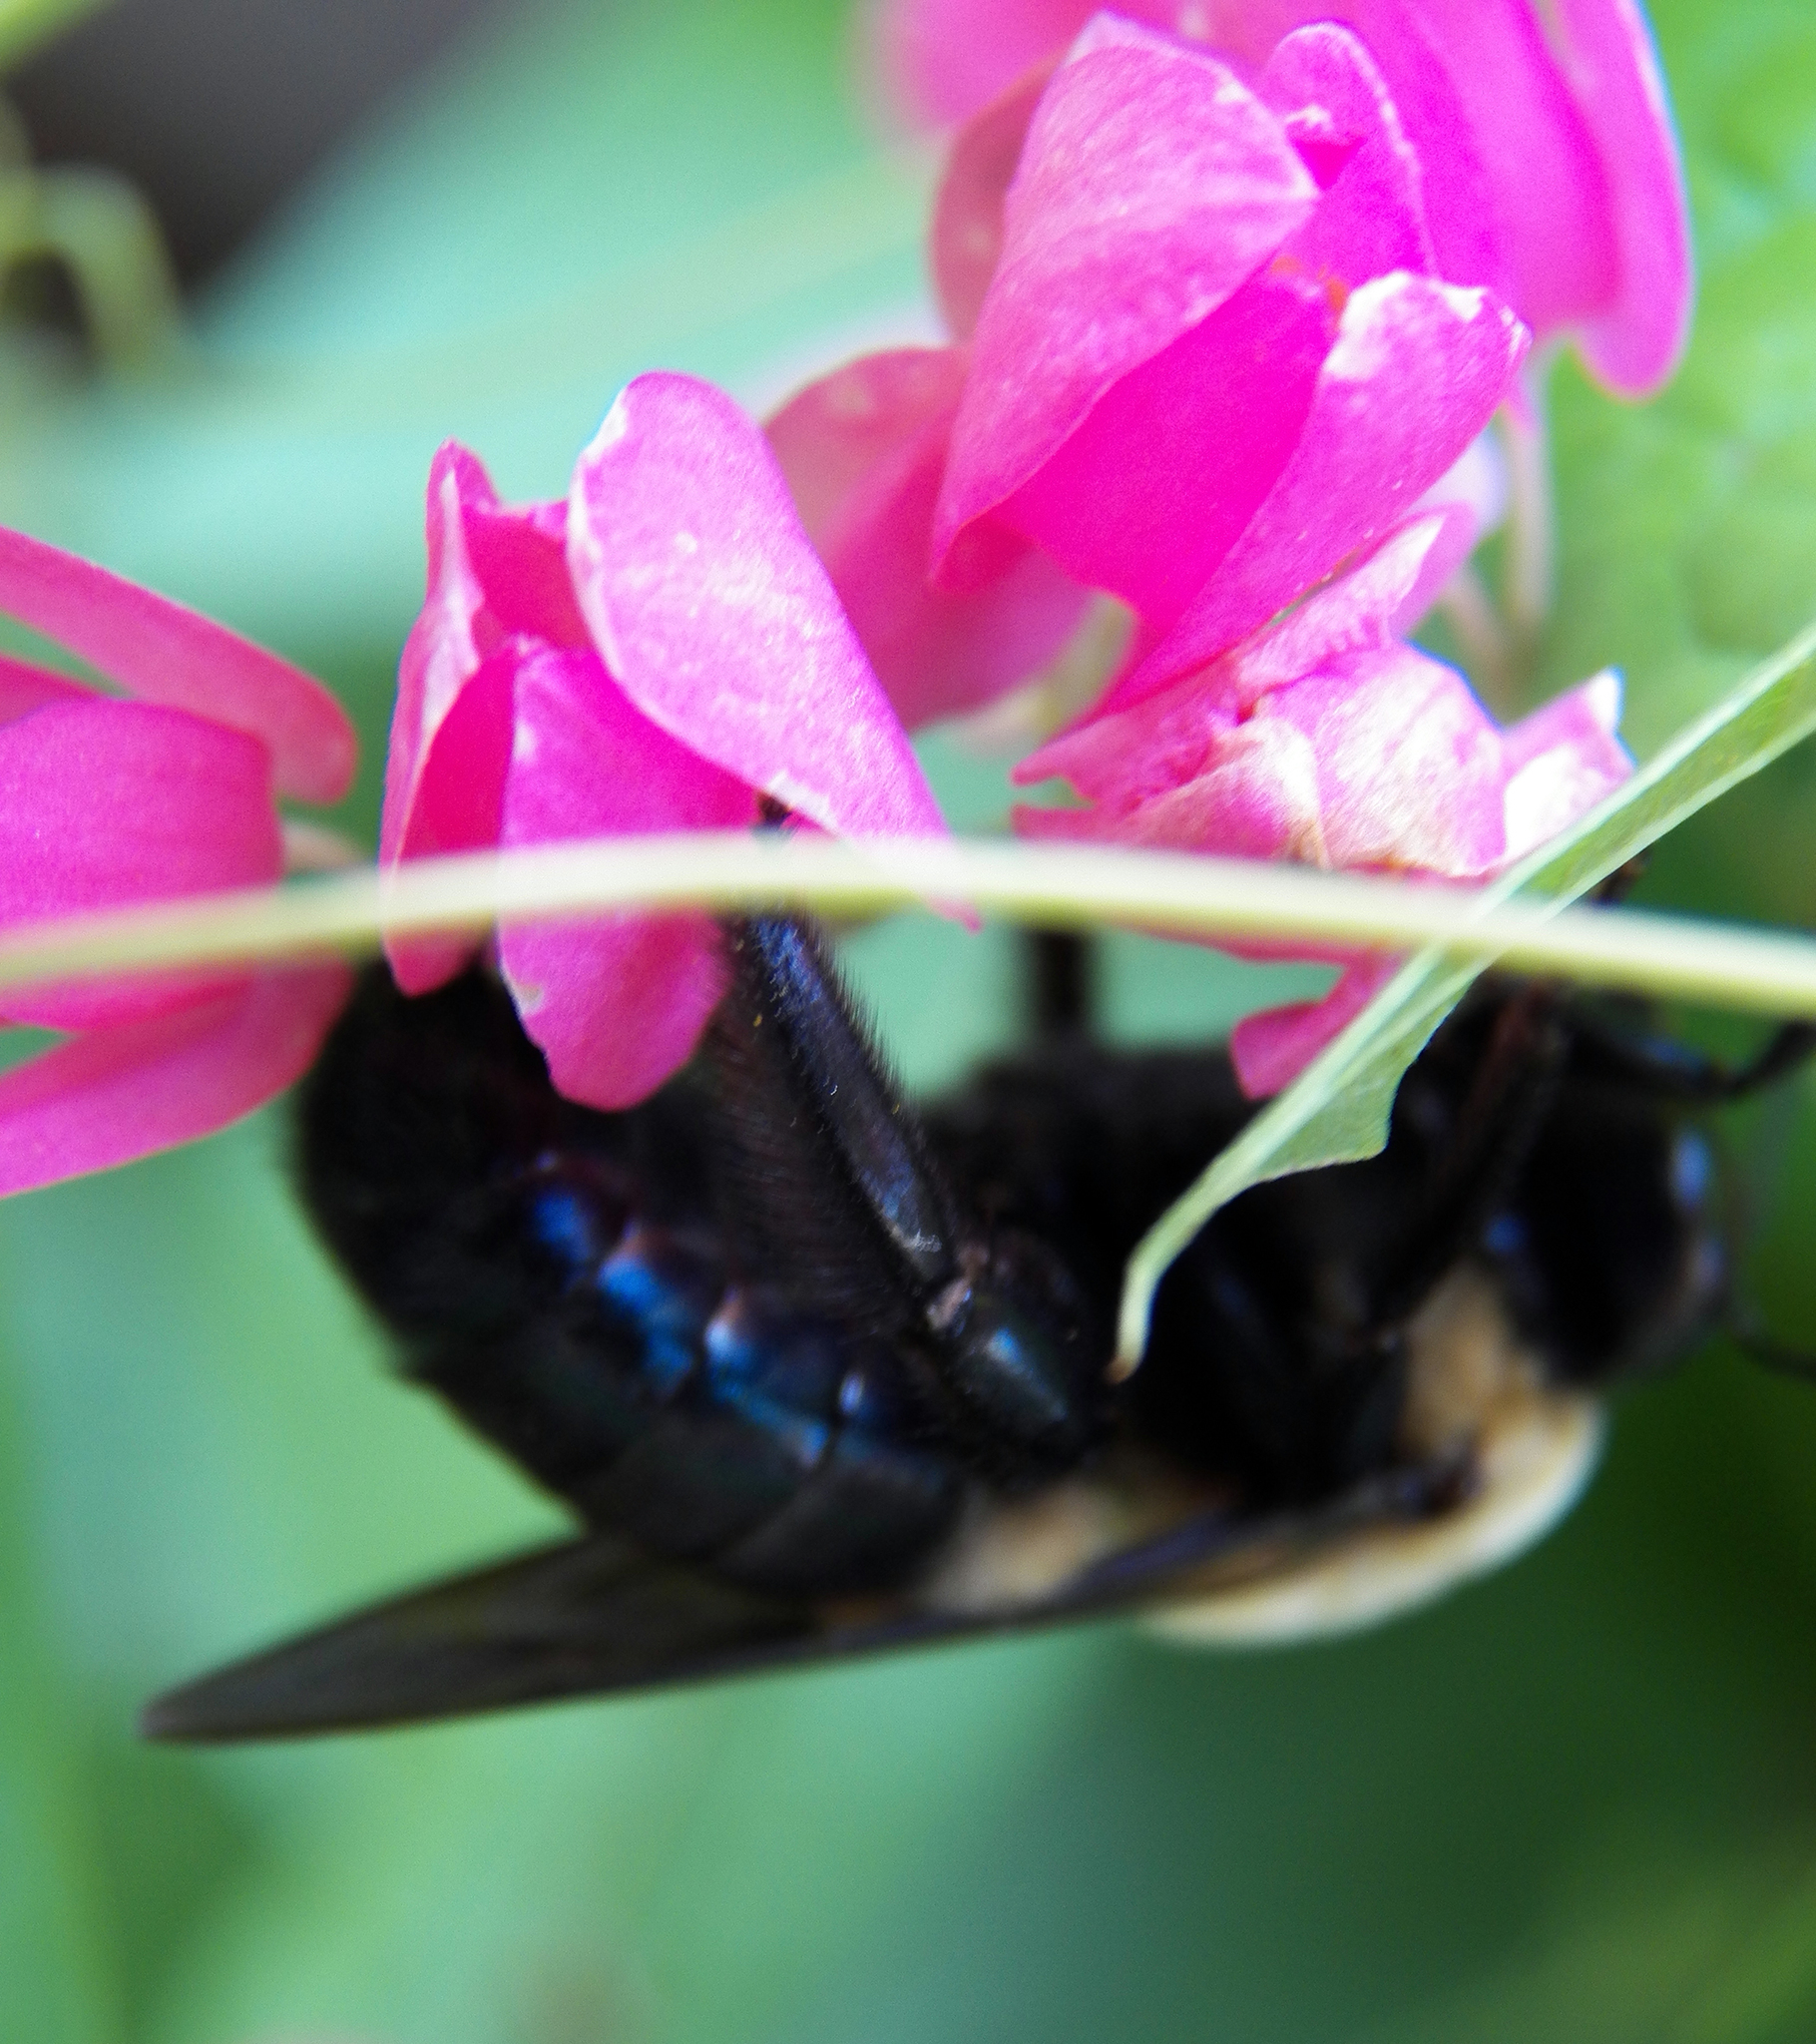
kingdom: Animalia
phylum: Arthropoda
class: Insecta
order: Hymenoptera
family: Apidae
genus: Xylocopa
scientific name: Xylocopa virginica
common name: Carpenter bee
